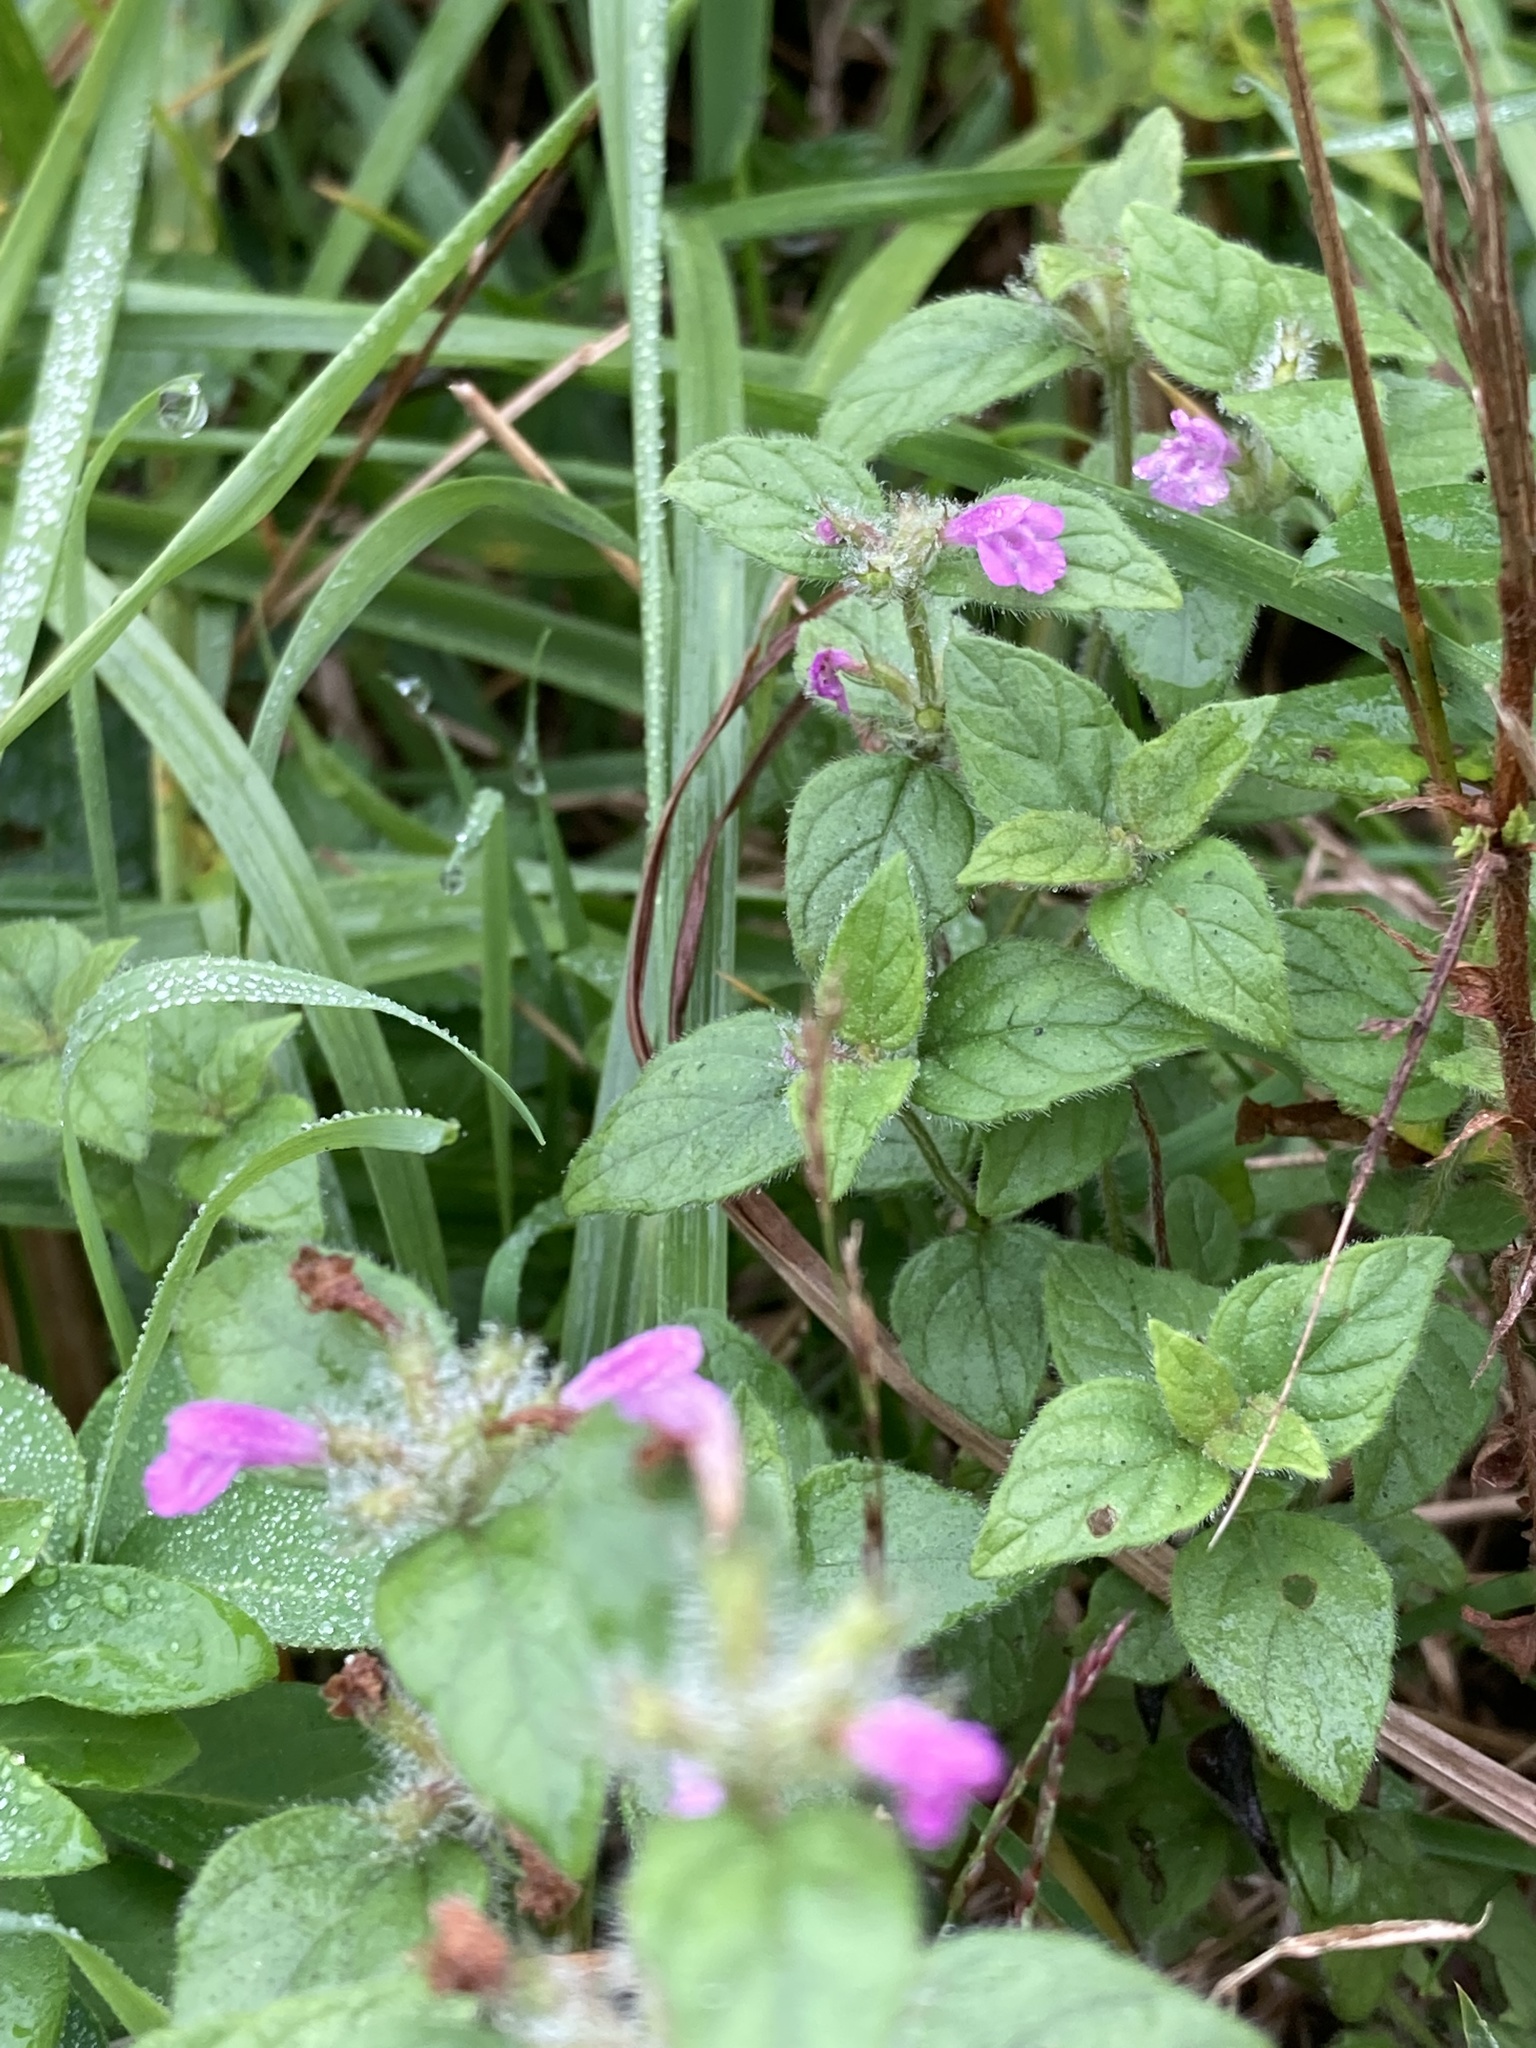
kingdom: Plantae
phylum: Tracheophyta
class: Magnoliopsida
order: Lamiales
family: Lamiaceae
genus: Clinopodium
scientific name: Clinopodium vulgare
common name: Wild basil
